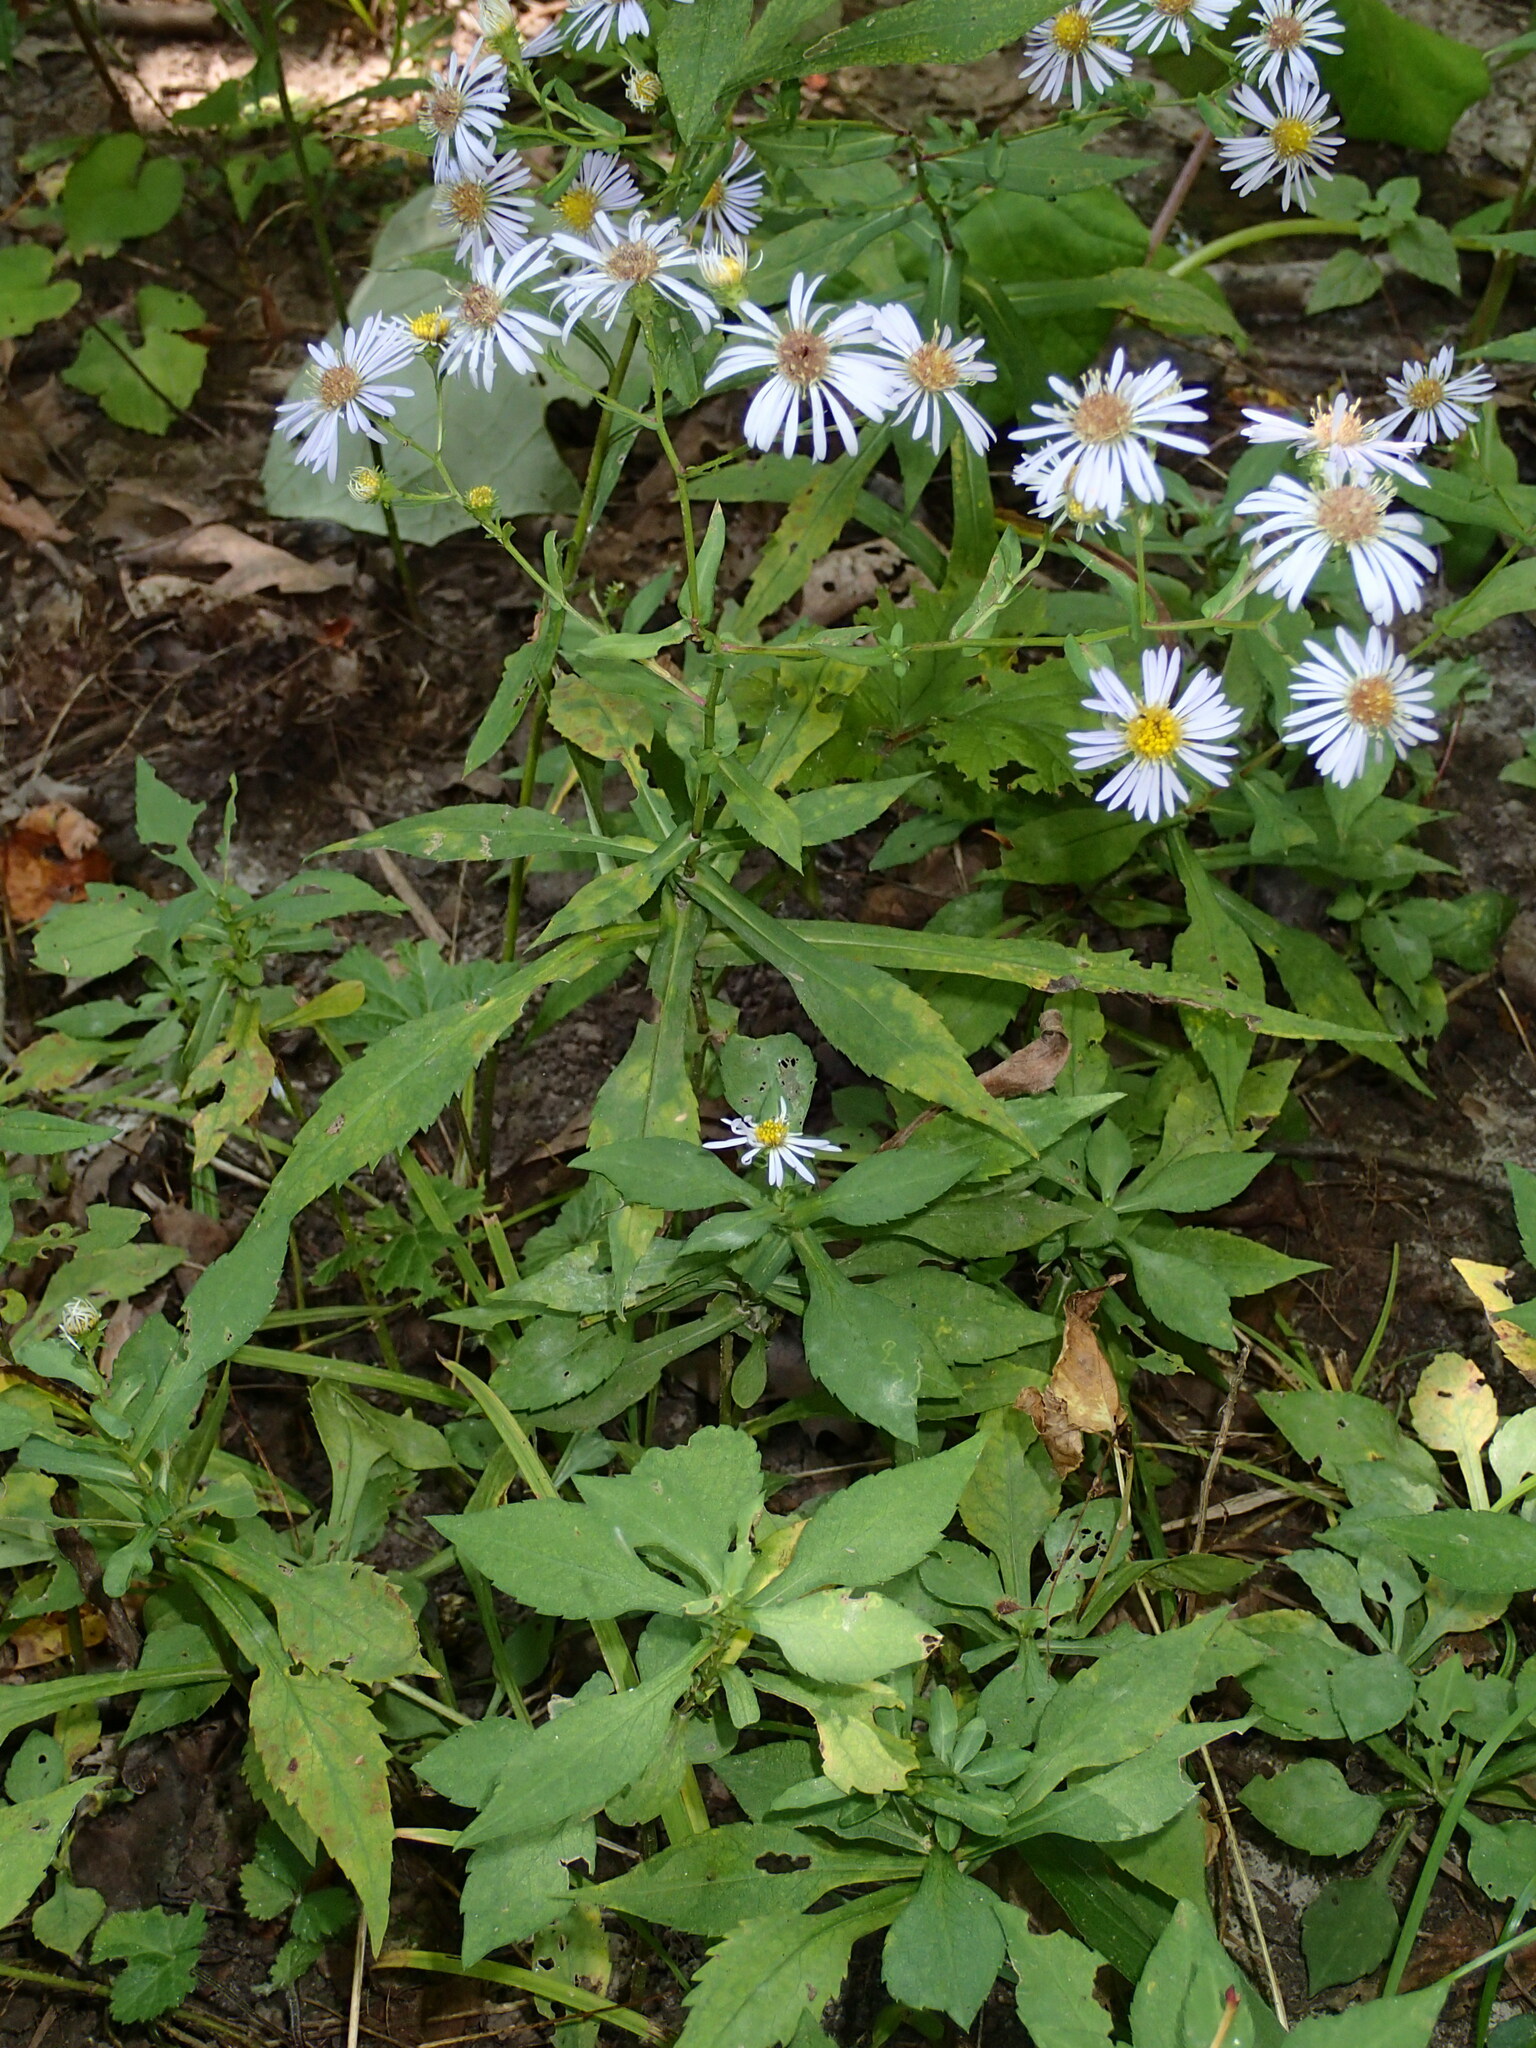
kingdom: Plantae
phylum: Tracheophyta
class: Magnoliopsida
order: Asterales
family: Asteraceae
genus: Symphyotrichum
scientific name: Symphyotrichum prenanthoides
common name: Crooked-stem aster
